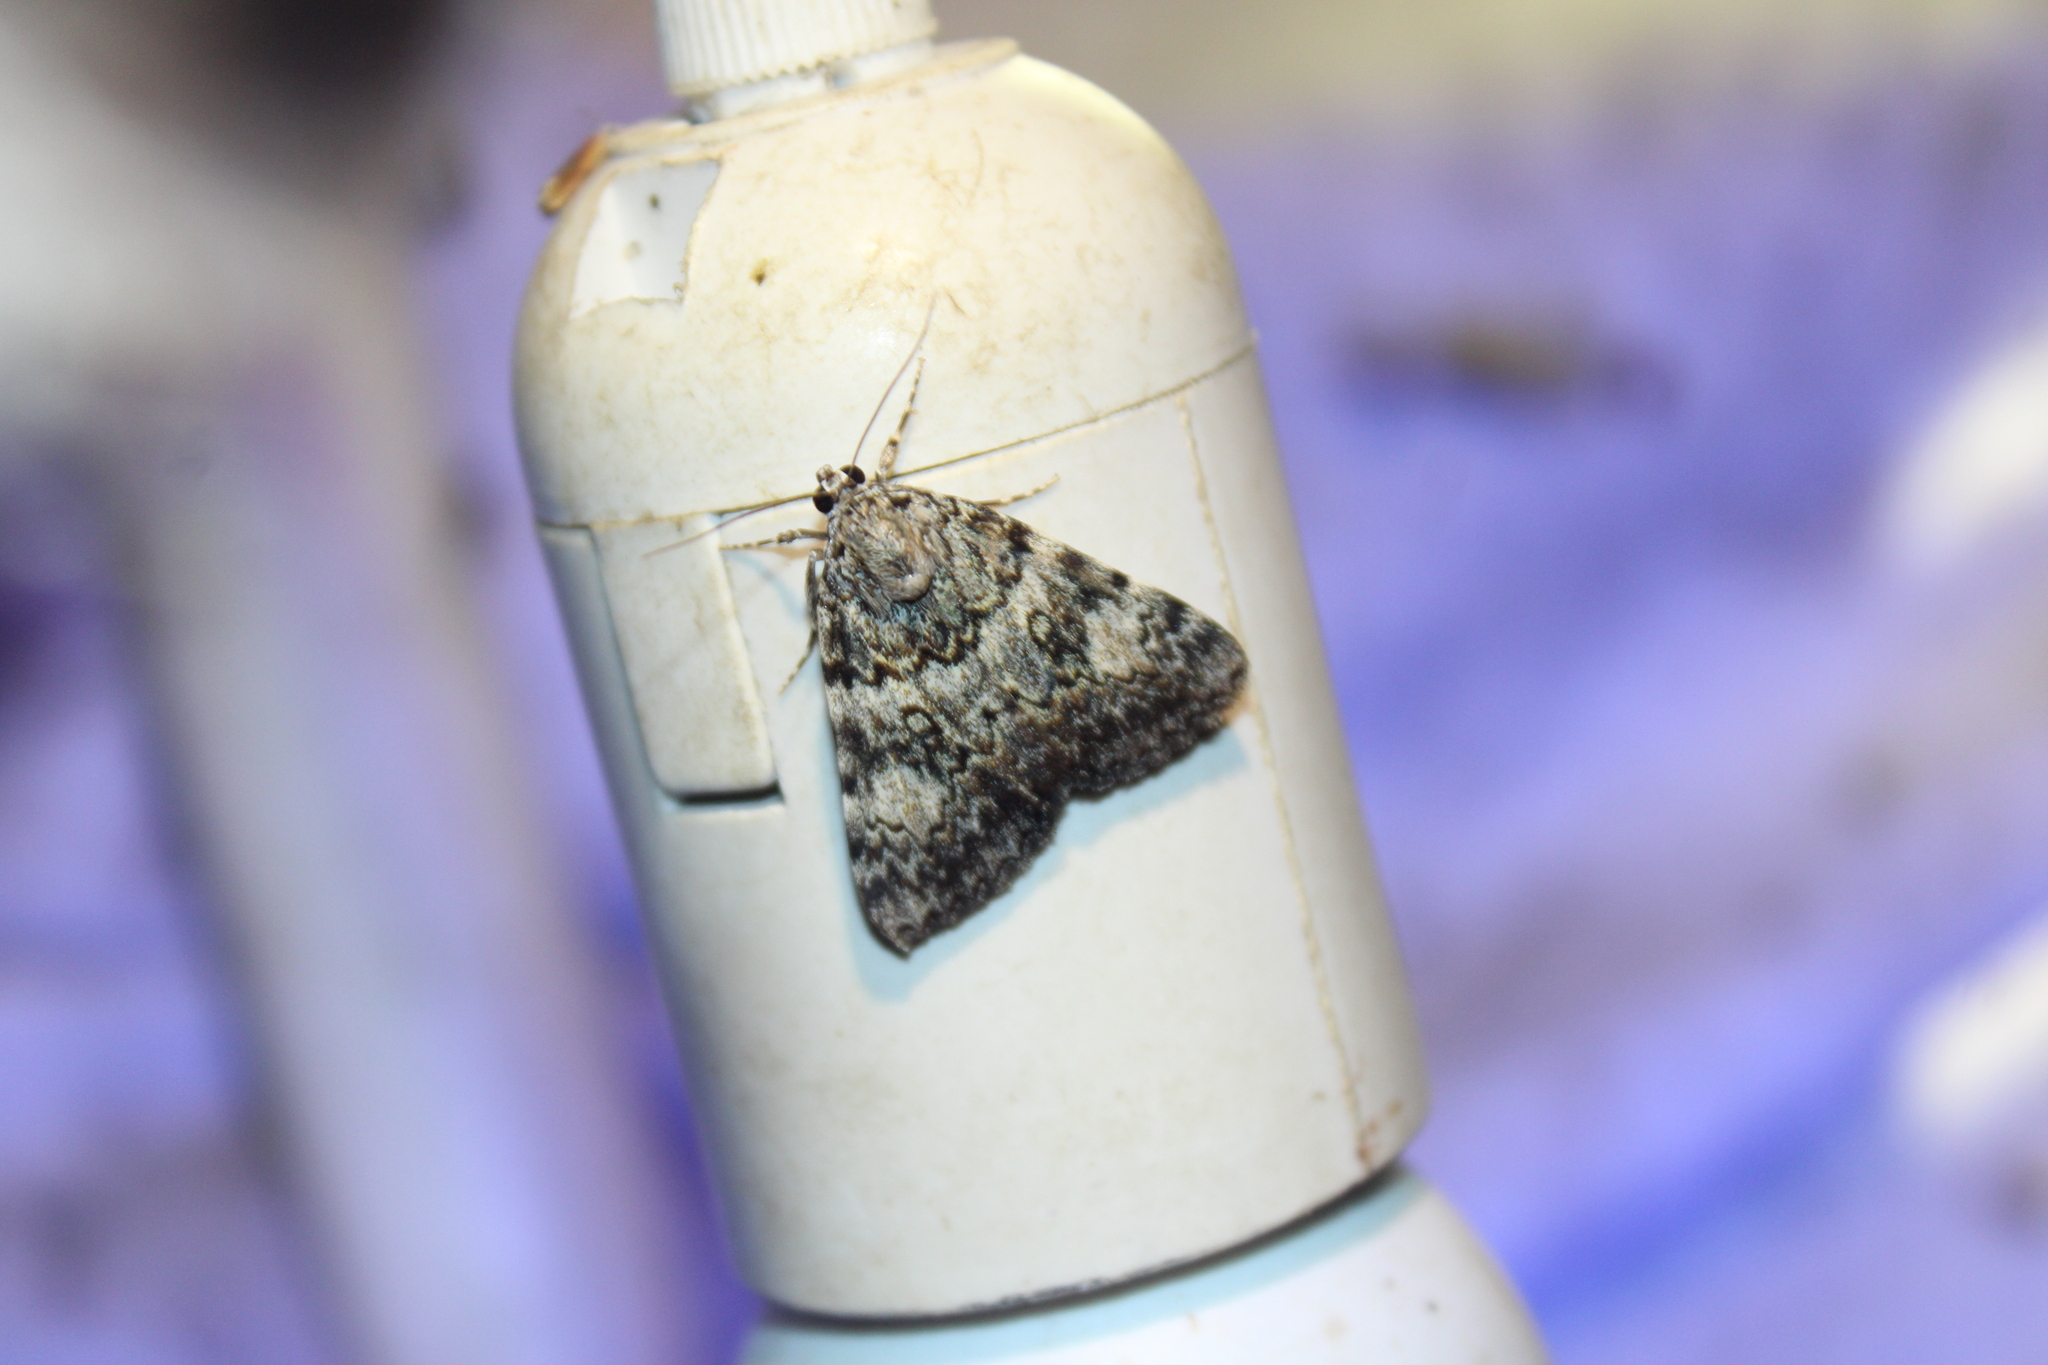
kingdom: Animalia
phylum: Arthropoda
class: Insecta
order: Lepidoptera
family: Erebidae
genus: Catocala
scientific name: Catocala lineella
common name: Little lined underwing
